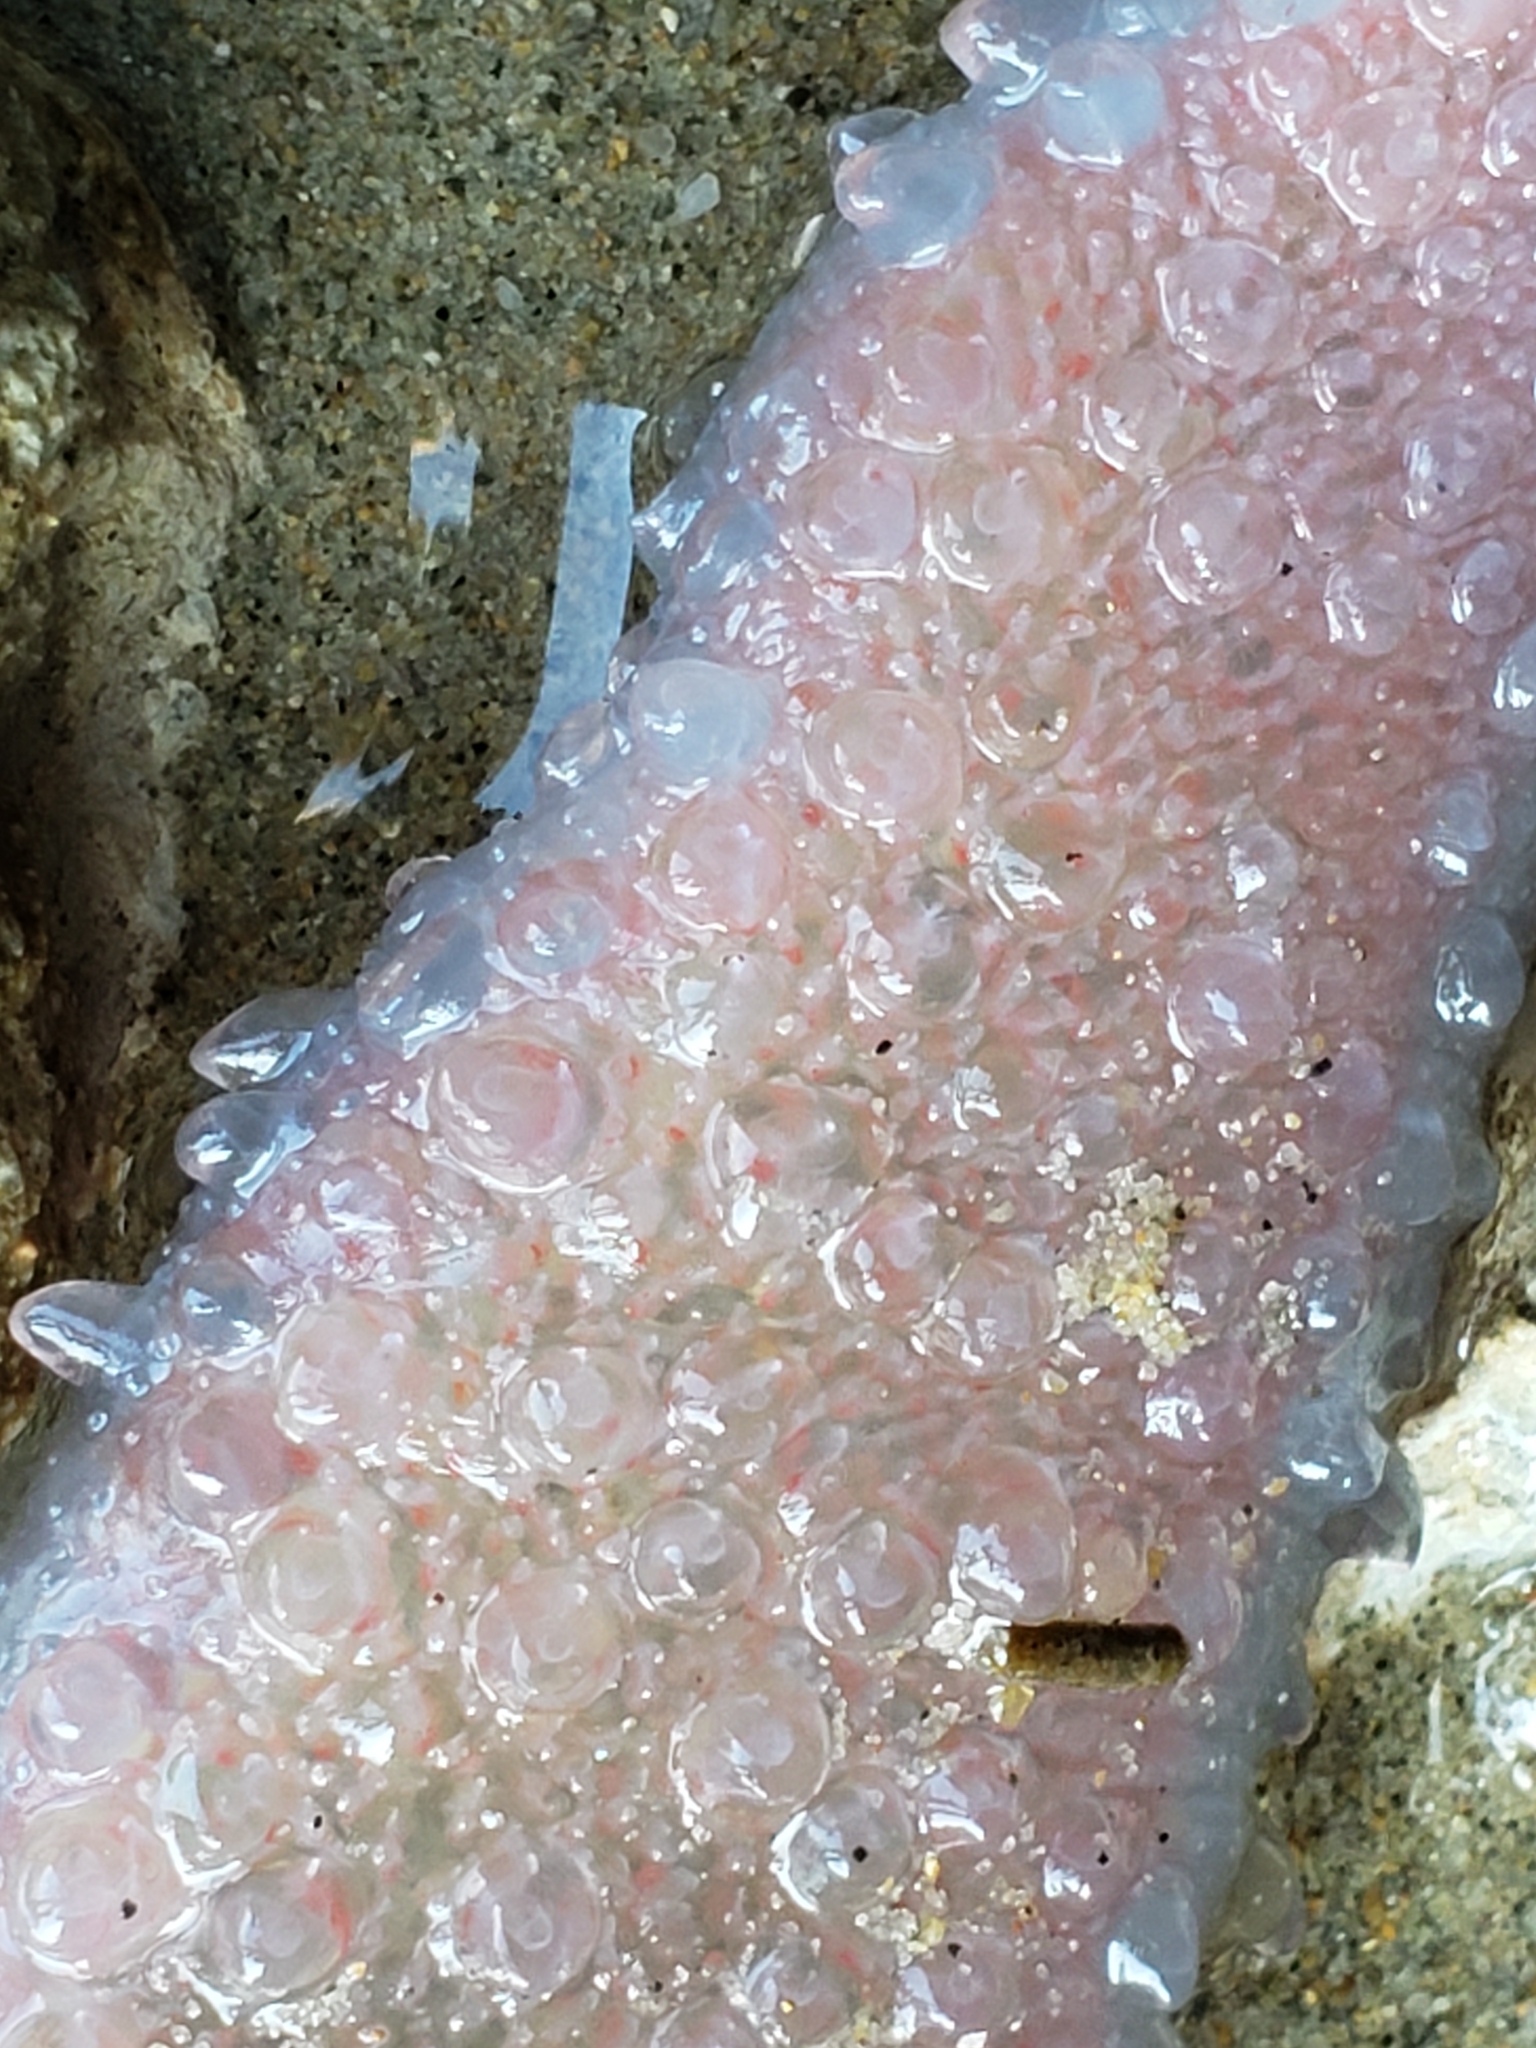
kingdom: Animalia
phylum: Chordata
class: Thaliacea
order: Pyrosomatida
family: Pyrosomatidae
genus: Pyrosoma
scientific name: Pyrosoma atlanticum
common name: Atlantic pyrosomes
